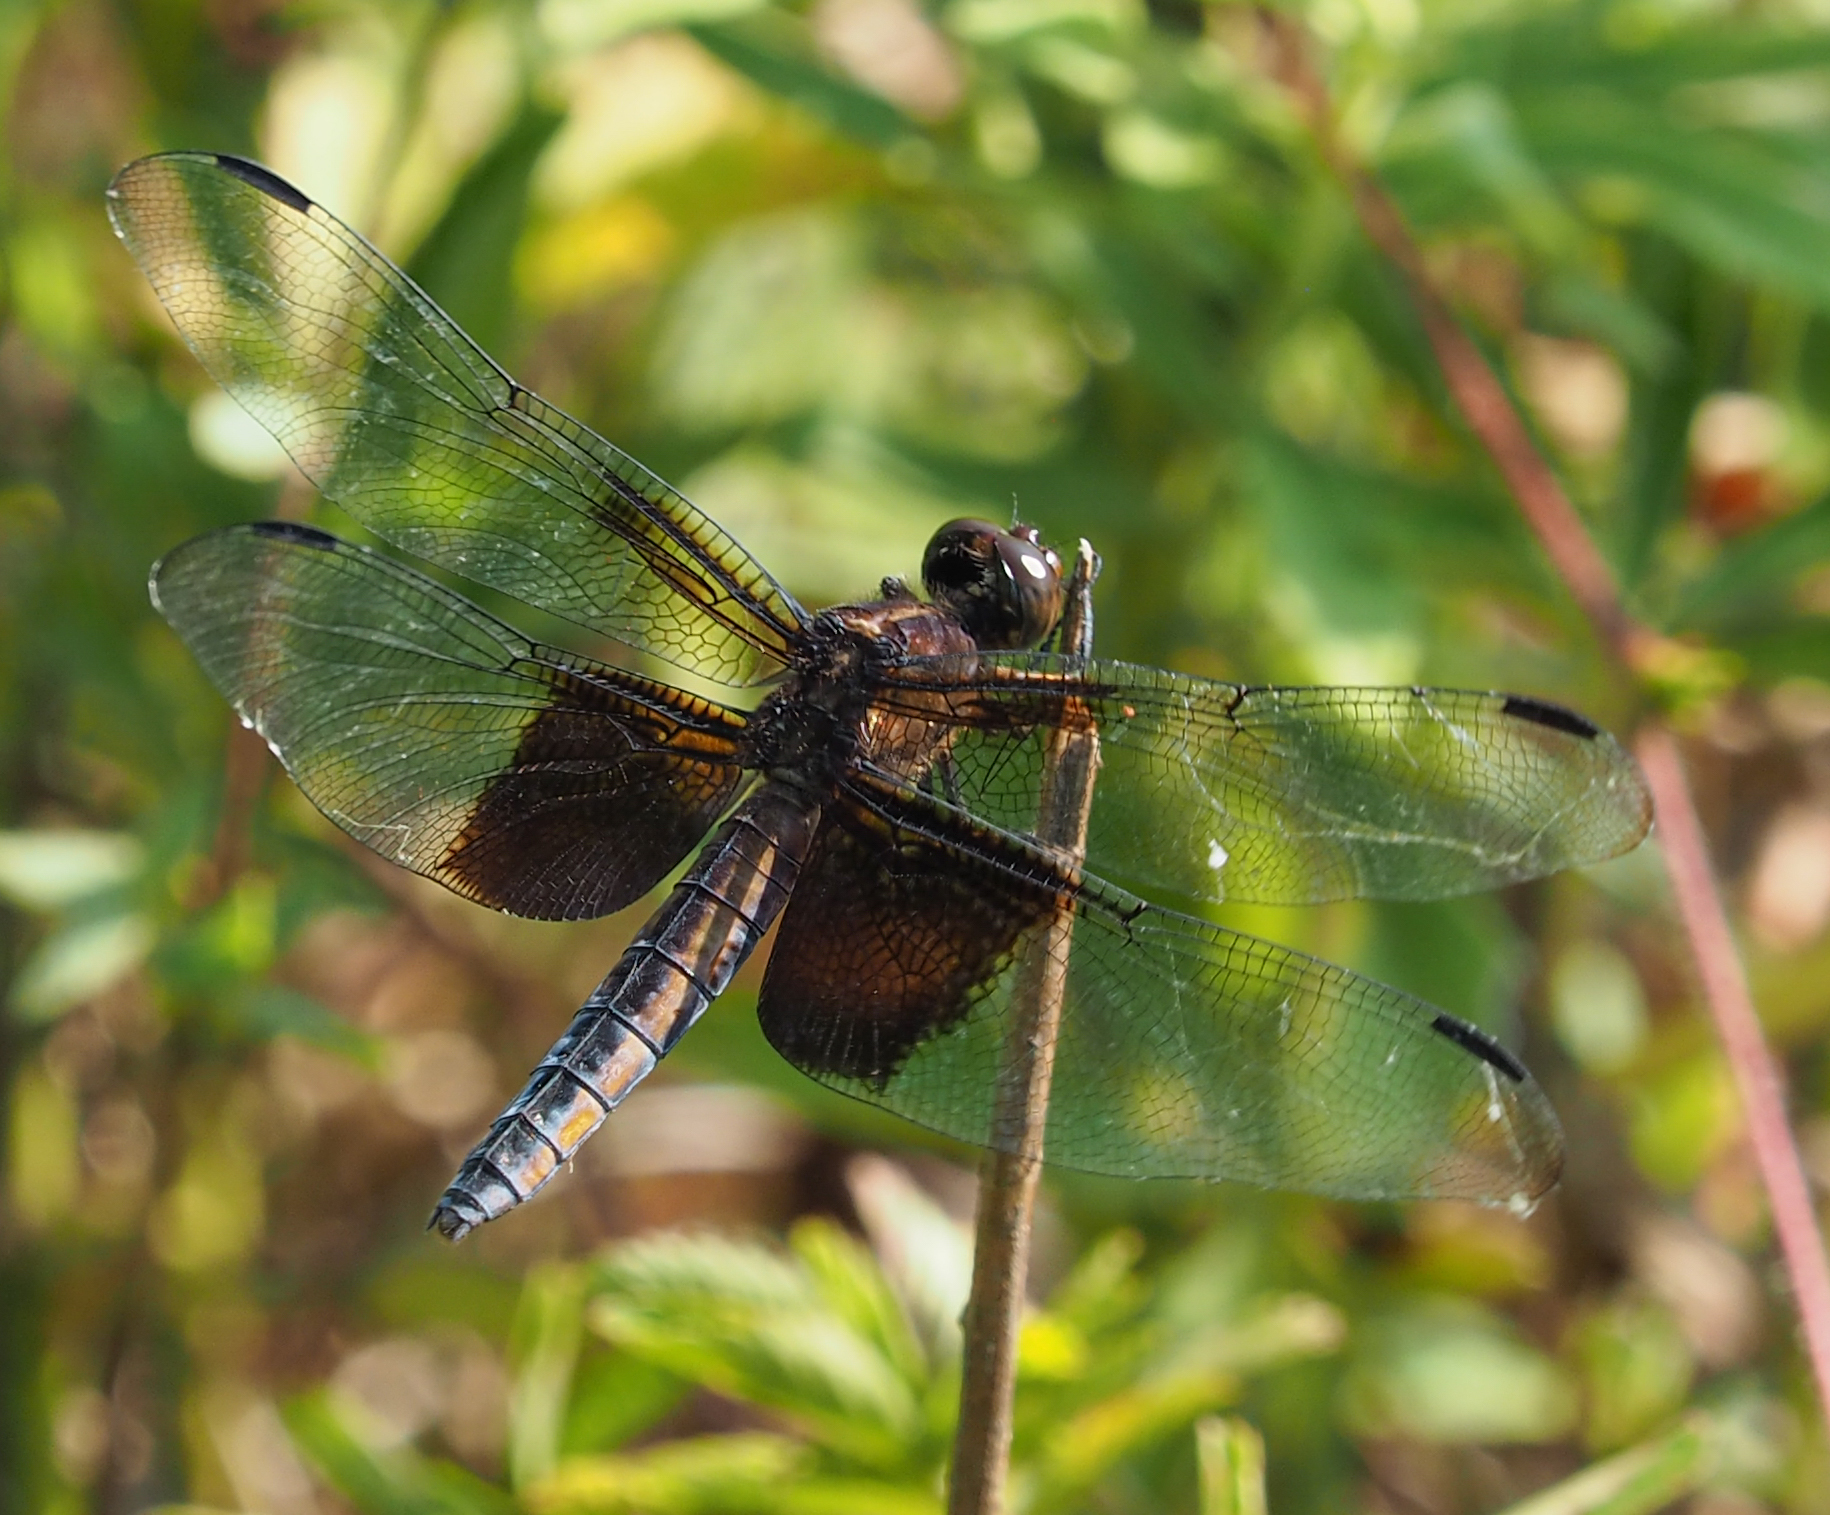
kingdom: Animalia
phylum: Arthropoda
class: Insecta
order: Odonata
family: Libellulidae
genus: Libellula
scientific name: Libellula luctuosa
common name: Widow skimmer
